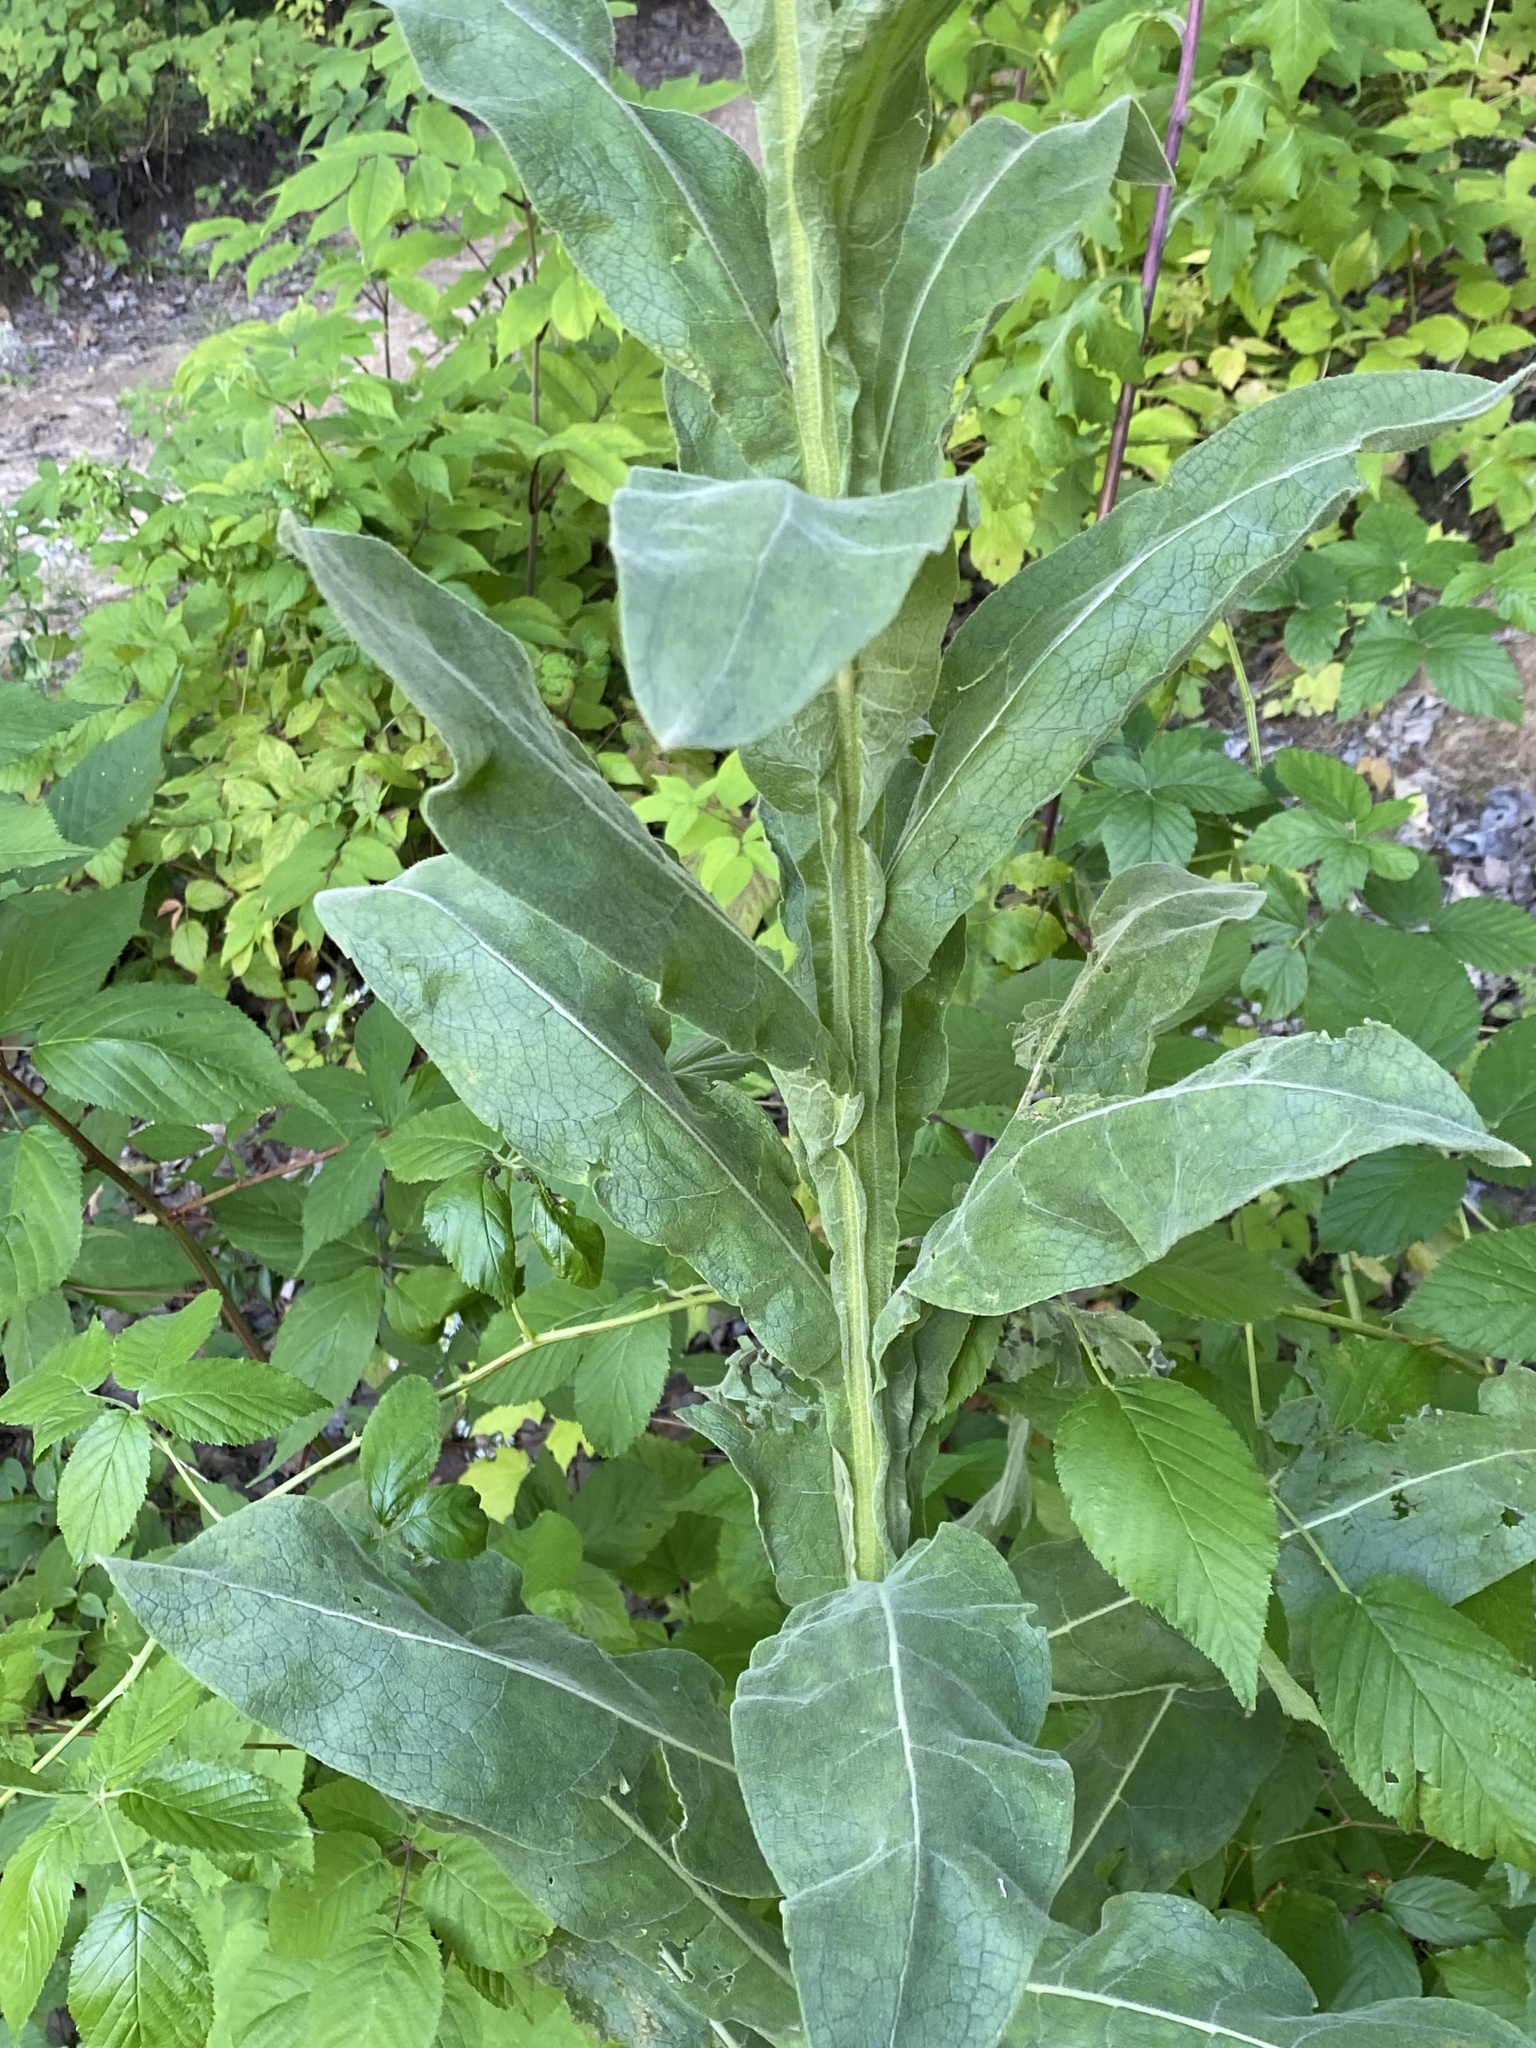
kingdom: Plantae
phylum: Tracheophyta
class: Magnoliopsida
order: Lamiales
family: Scrophulariaceae
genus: Verbascum
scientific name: Verbascum thapsus
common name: Common mullein
